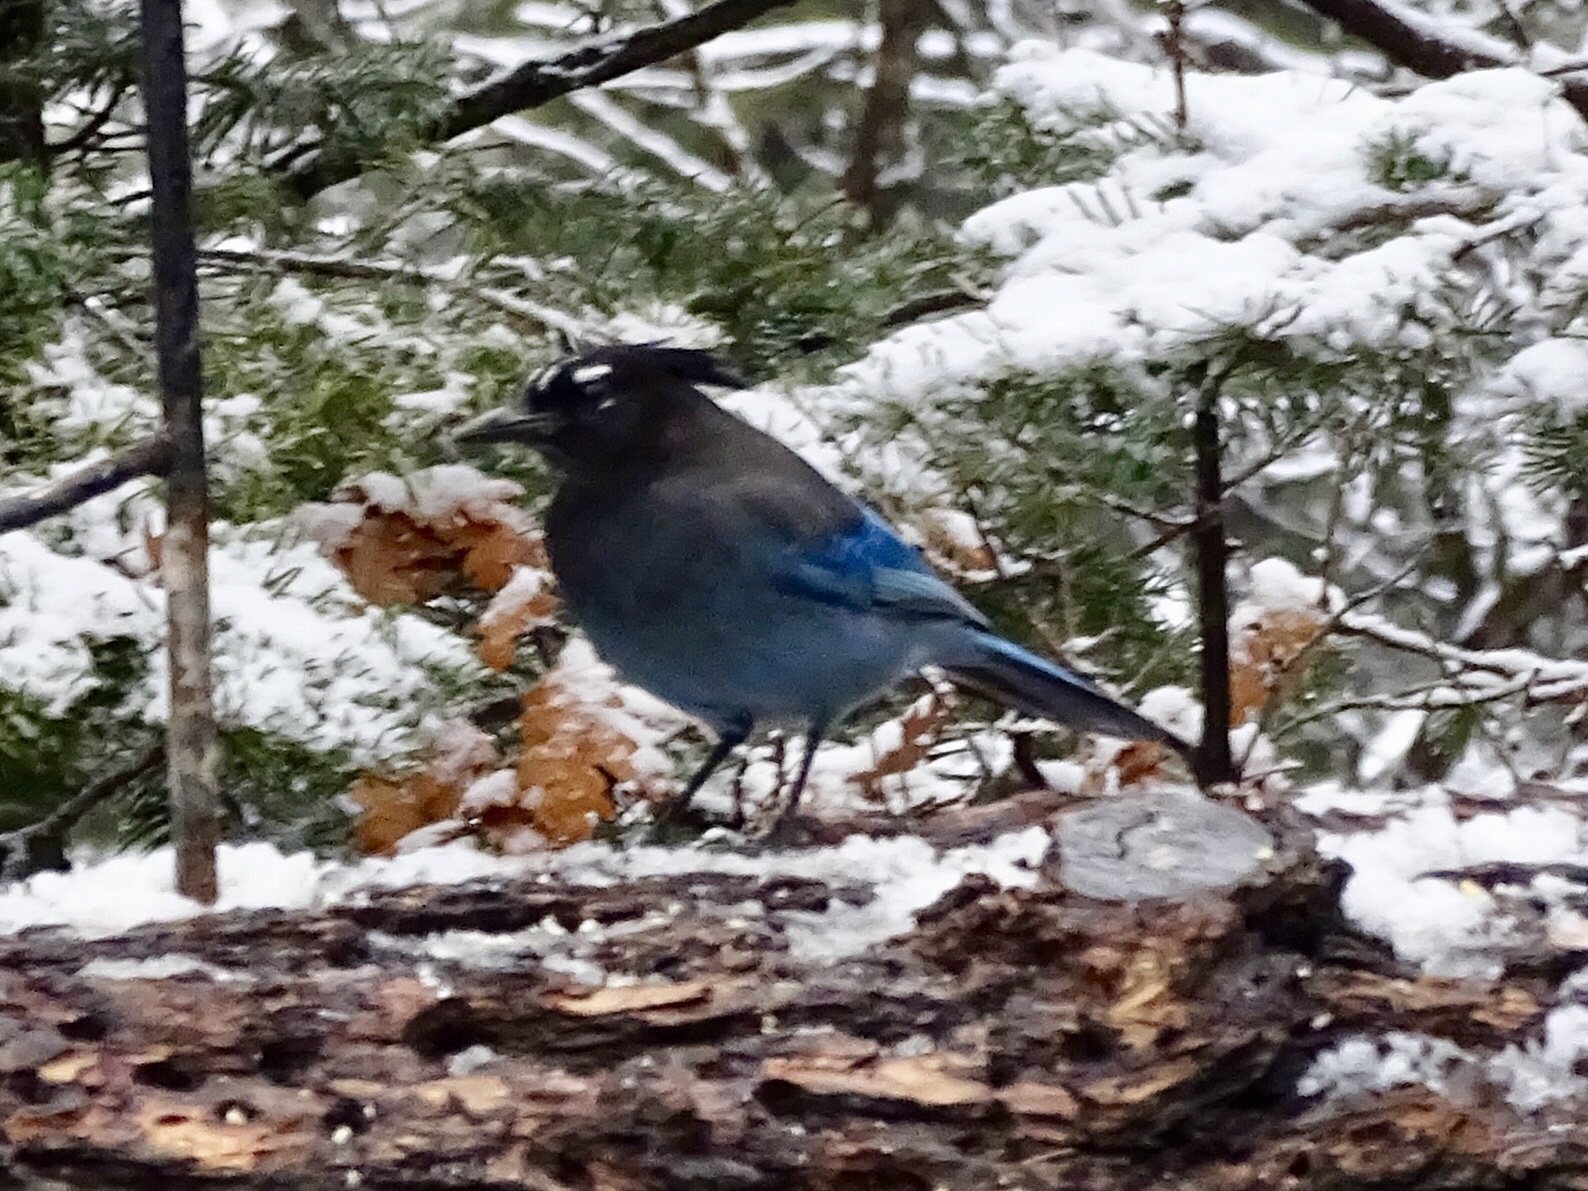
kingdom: Animalia
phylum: Chordata
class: Aves
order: Passeriformes
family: Corvidae
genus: Cyanocitta
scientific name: Cyanocitta stelleri
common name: Steller's jay
